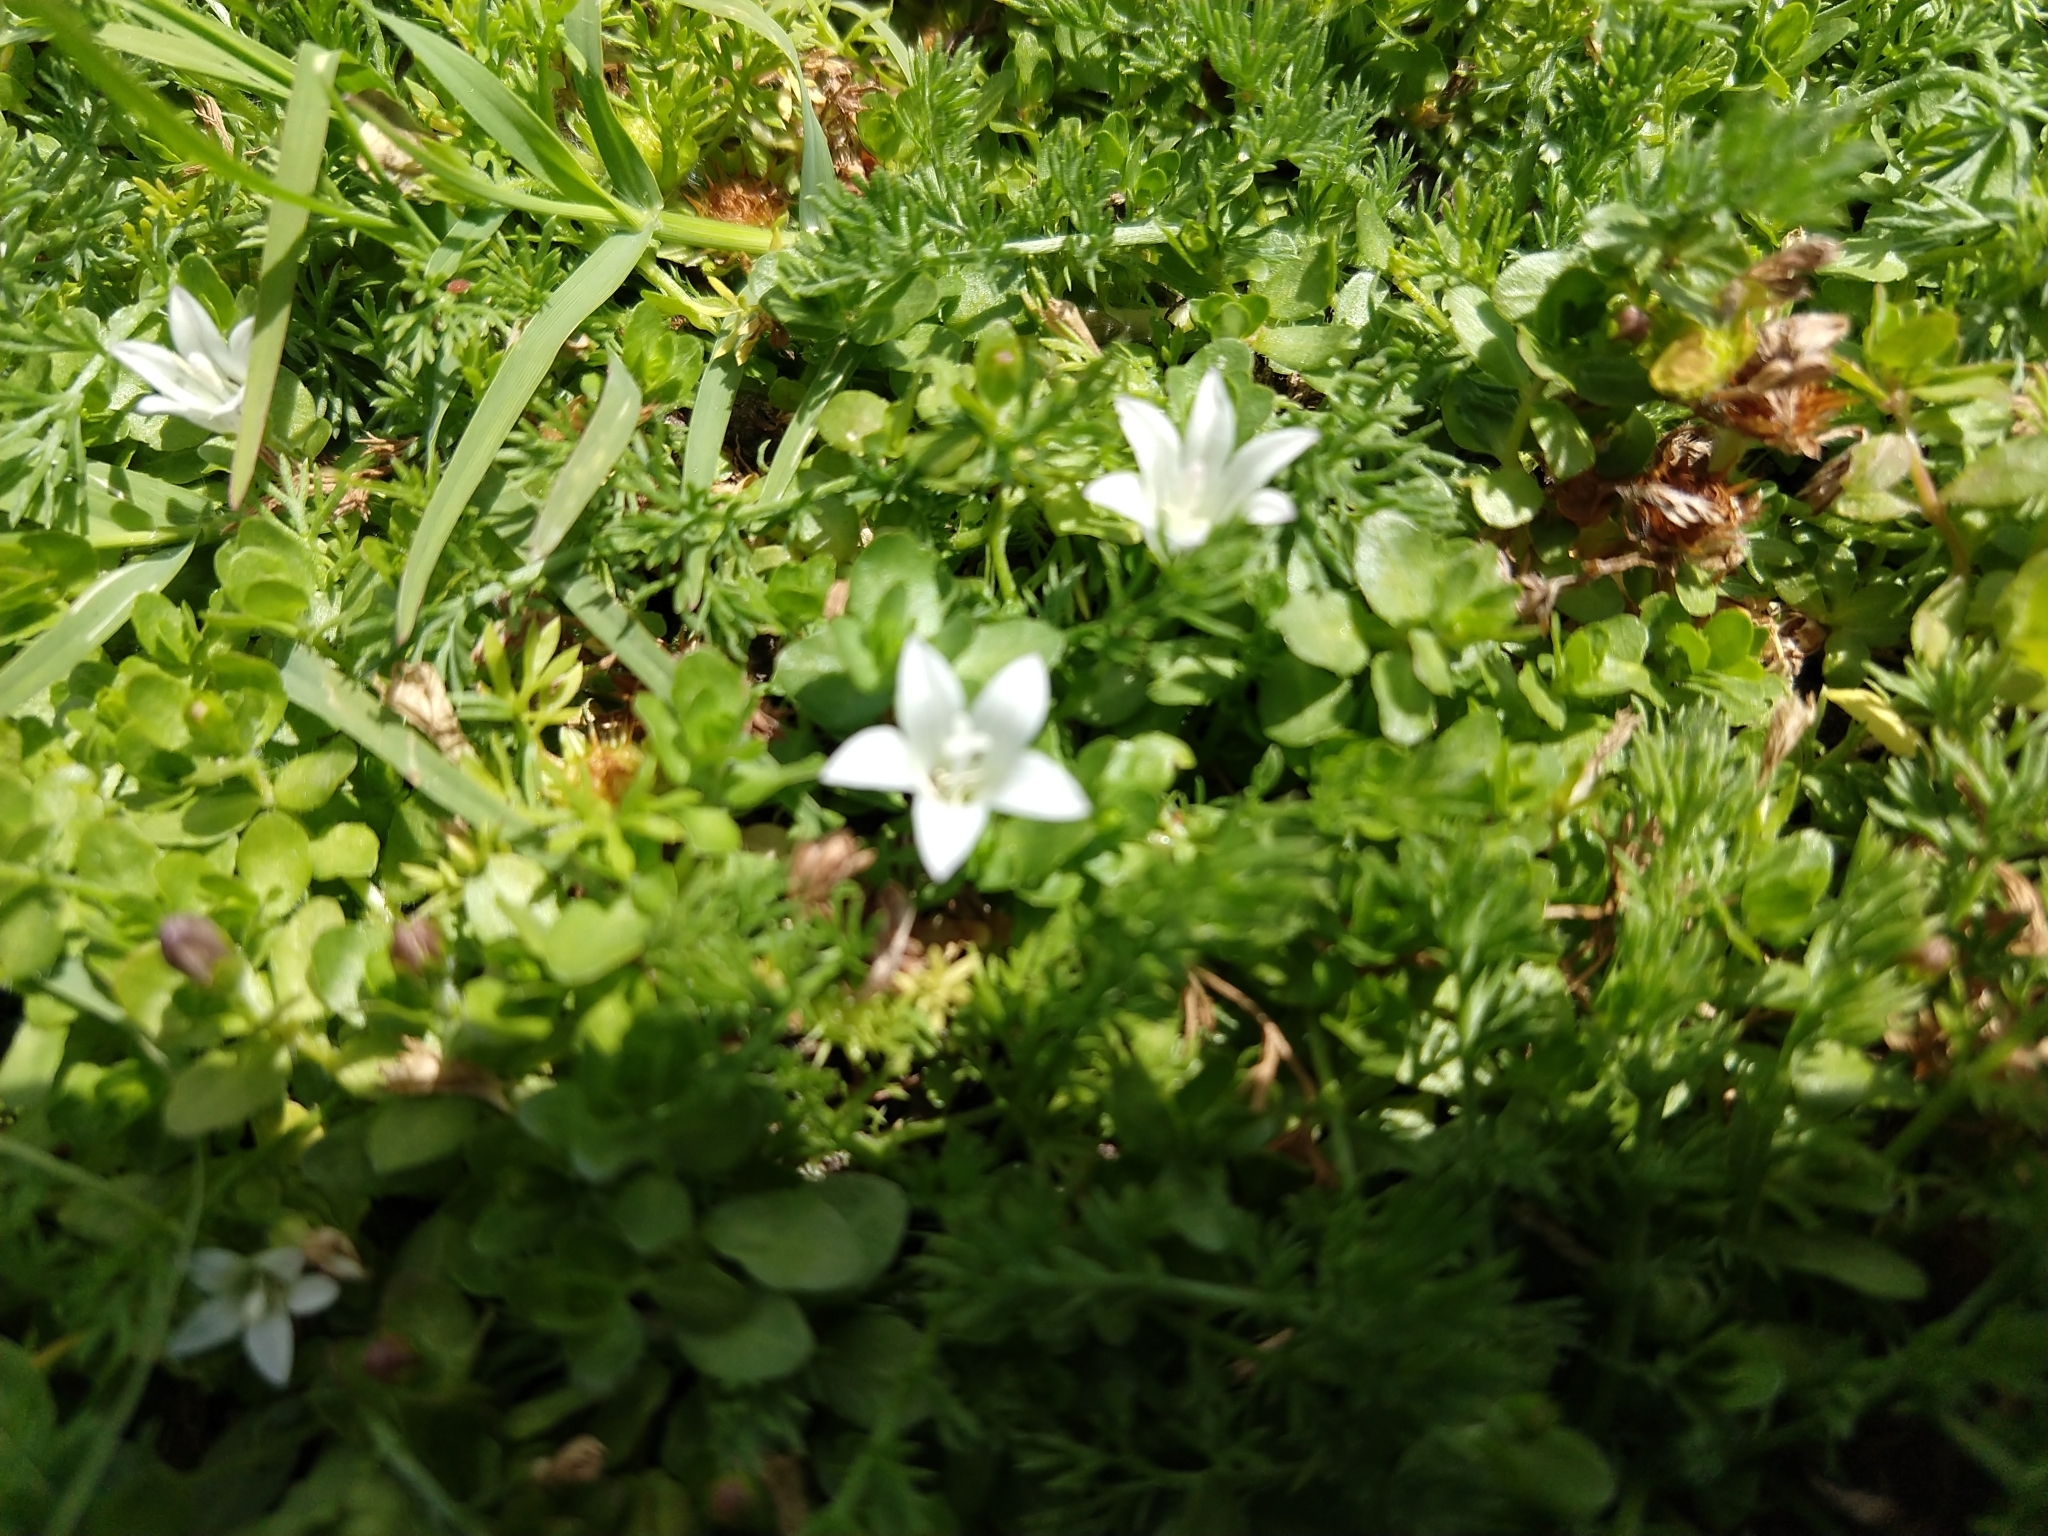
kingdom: Plantae
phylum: Tracheophyta
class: Magnoliopsida
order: Asterales
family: Campanulaceae
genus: Wahlenbergia
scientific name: Wahlenbergia procumbens
